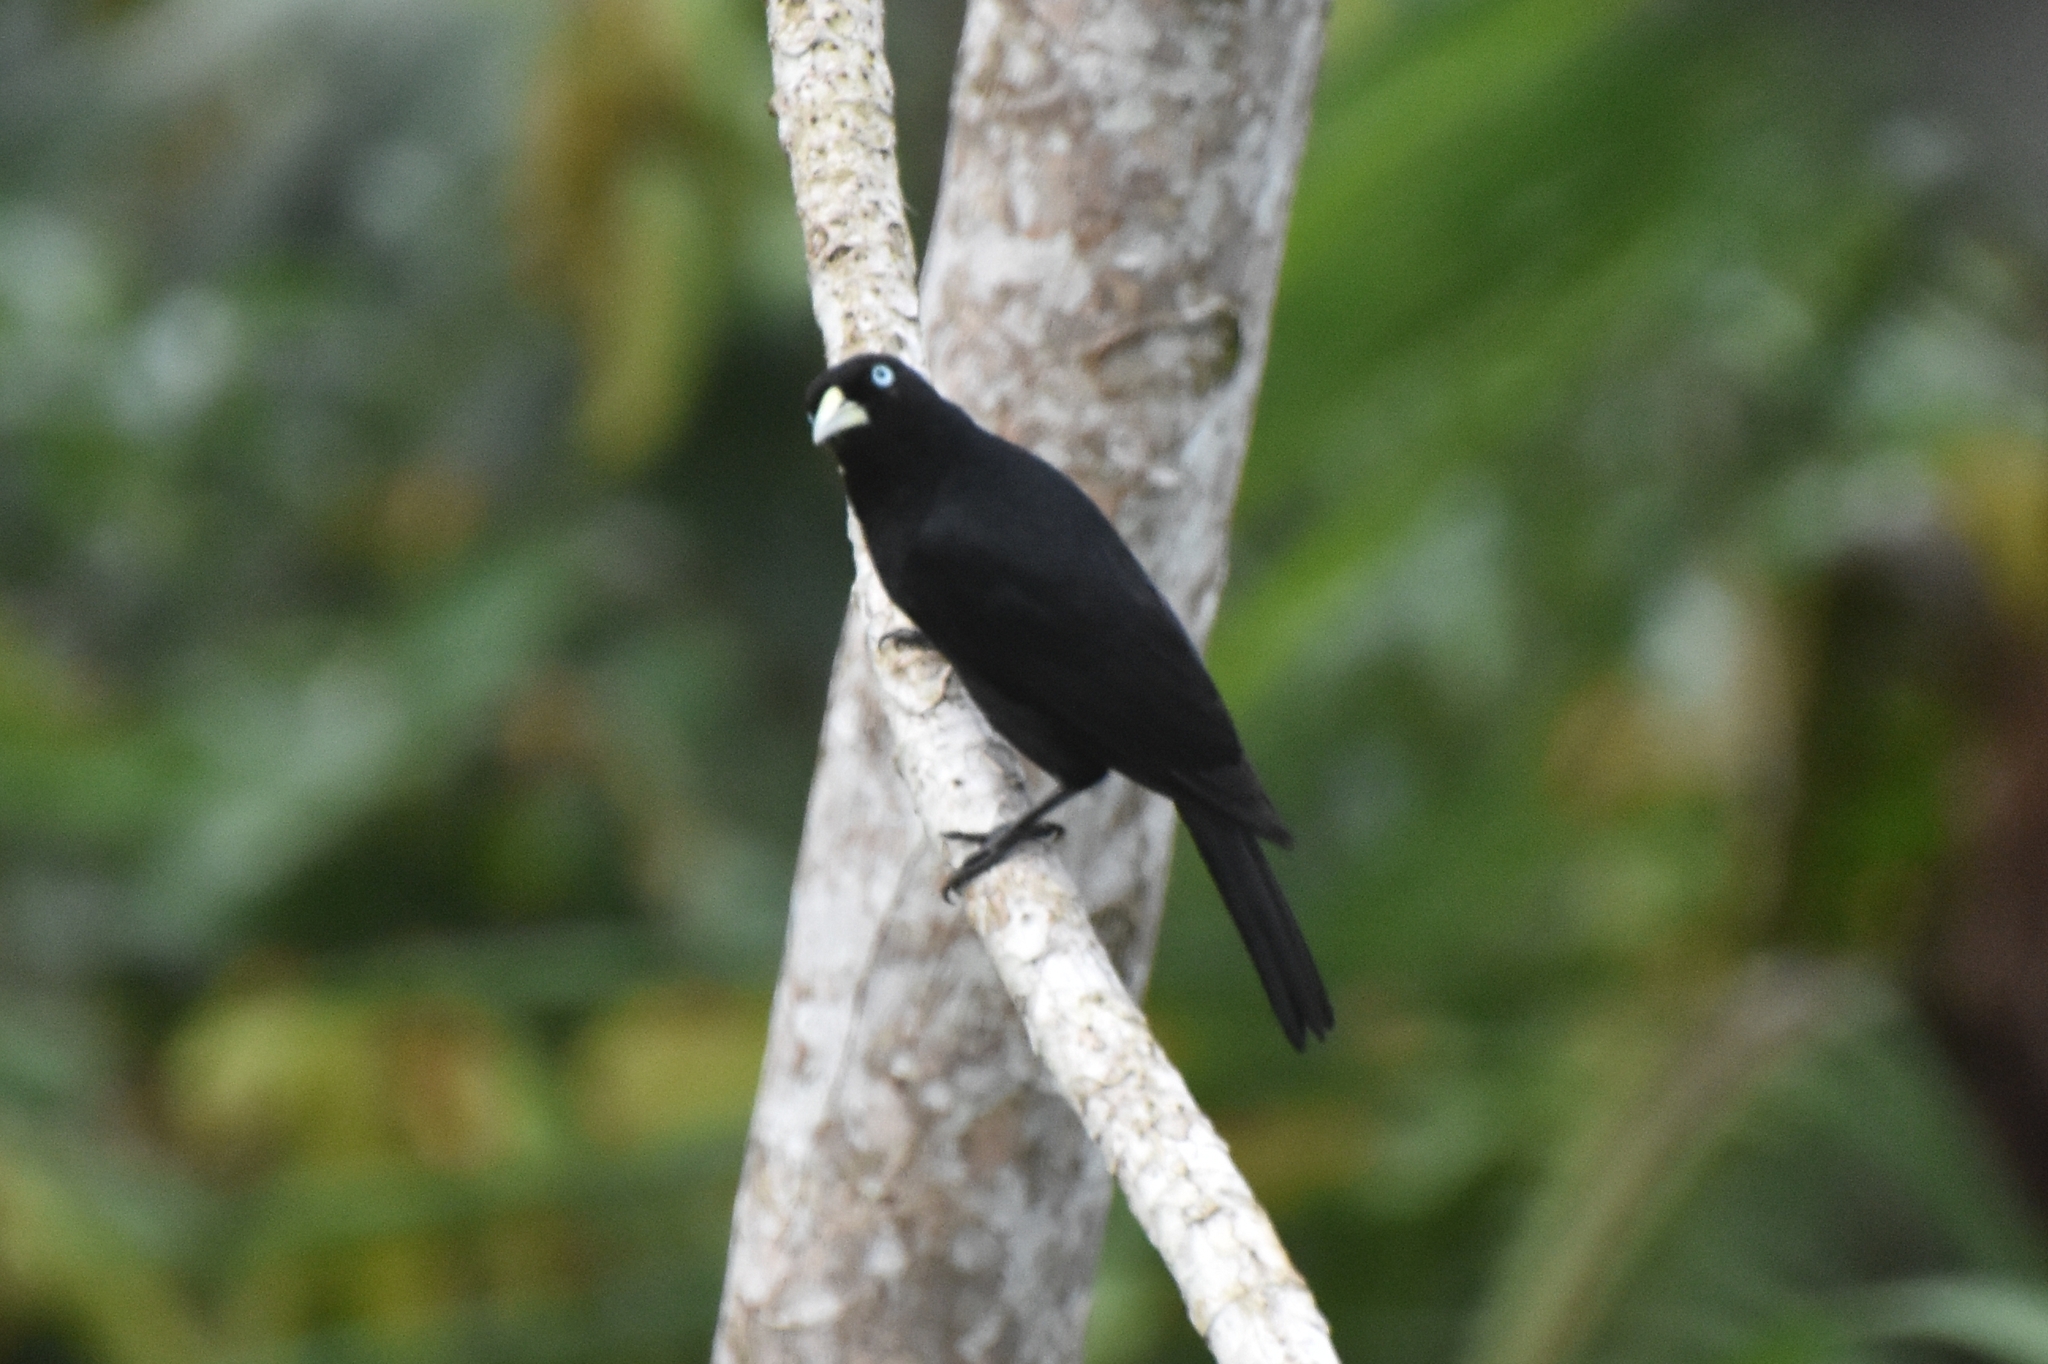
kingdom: Animalia
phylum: Chordata
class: Aves
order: Passeriformes
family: Icteridae
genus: Cacicus
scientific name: Cacicus uropygialis
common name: Scarlet-rumped cacique
